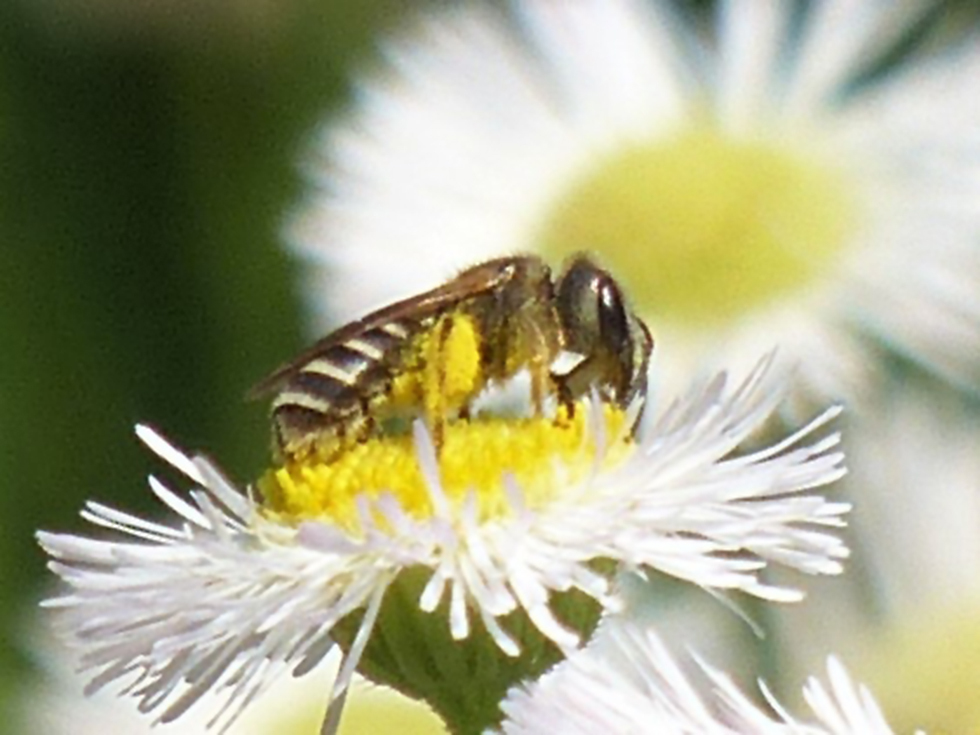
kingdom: Animalia
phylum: Arthropoda
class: Insecta
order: Hymenoptera
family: Halictidae
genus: Halictus
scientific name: Halictus ligatus
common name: Ligated furrow bee
